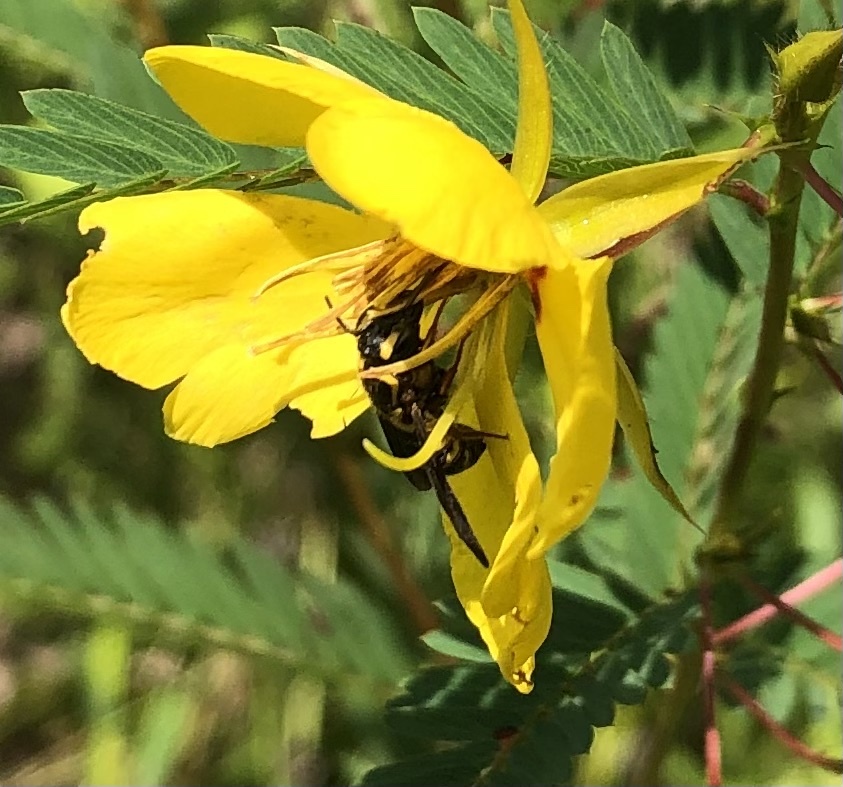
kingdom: Animalia
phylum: Arthropoda
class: Insecta
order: Hymenoptera
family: Megachilidae
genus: Stelis
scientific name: Stelis louisae
